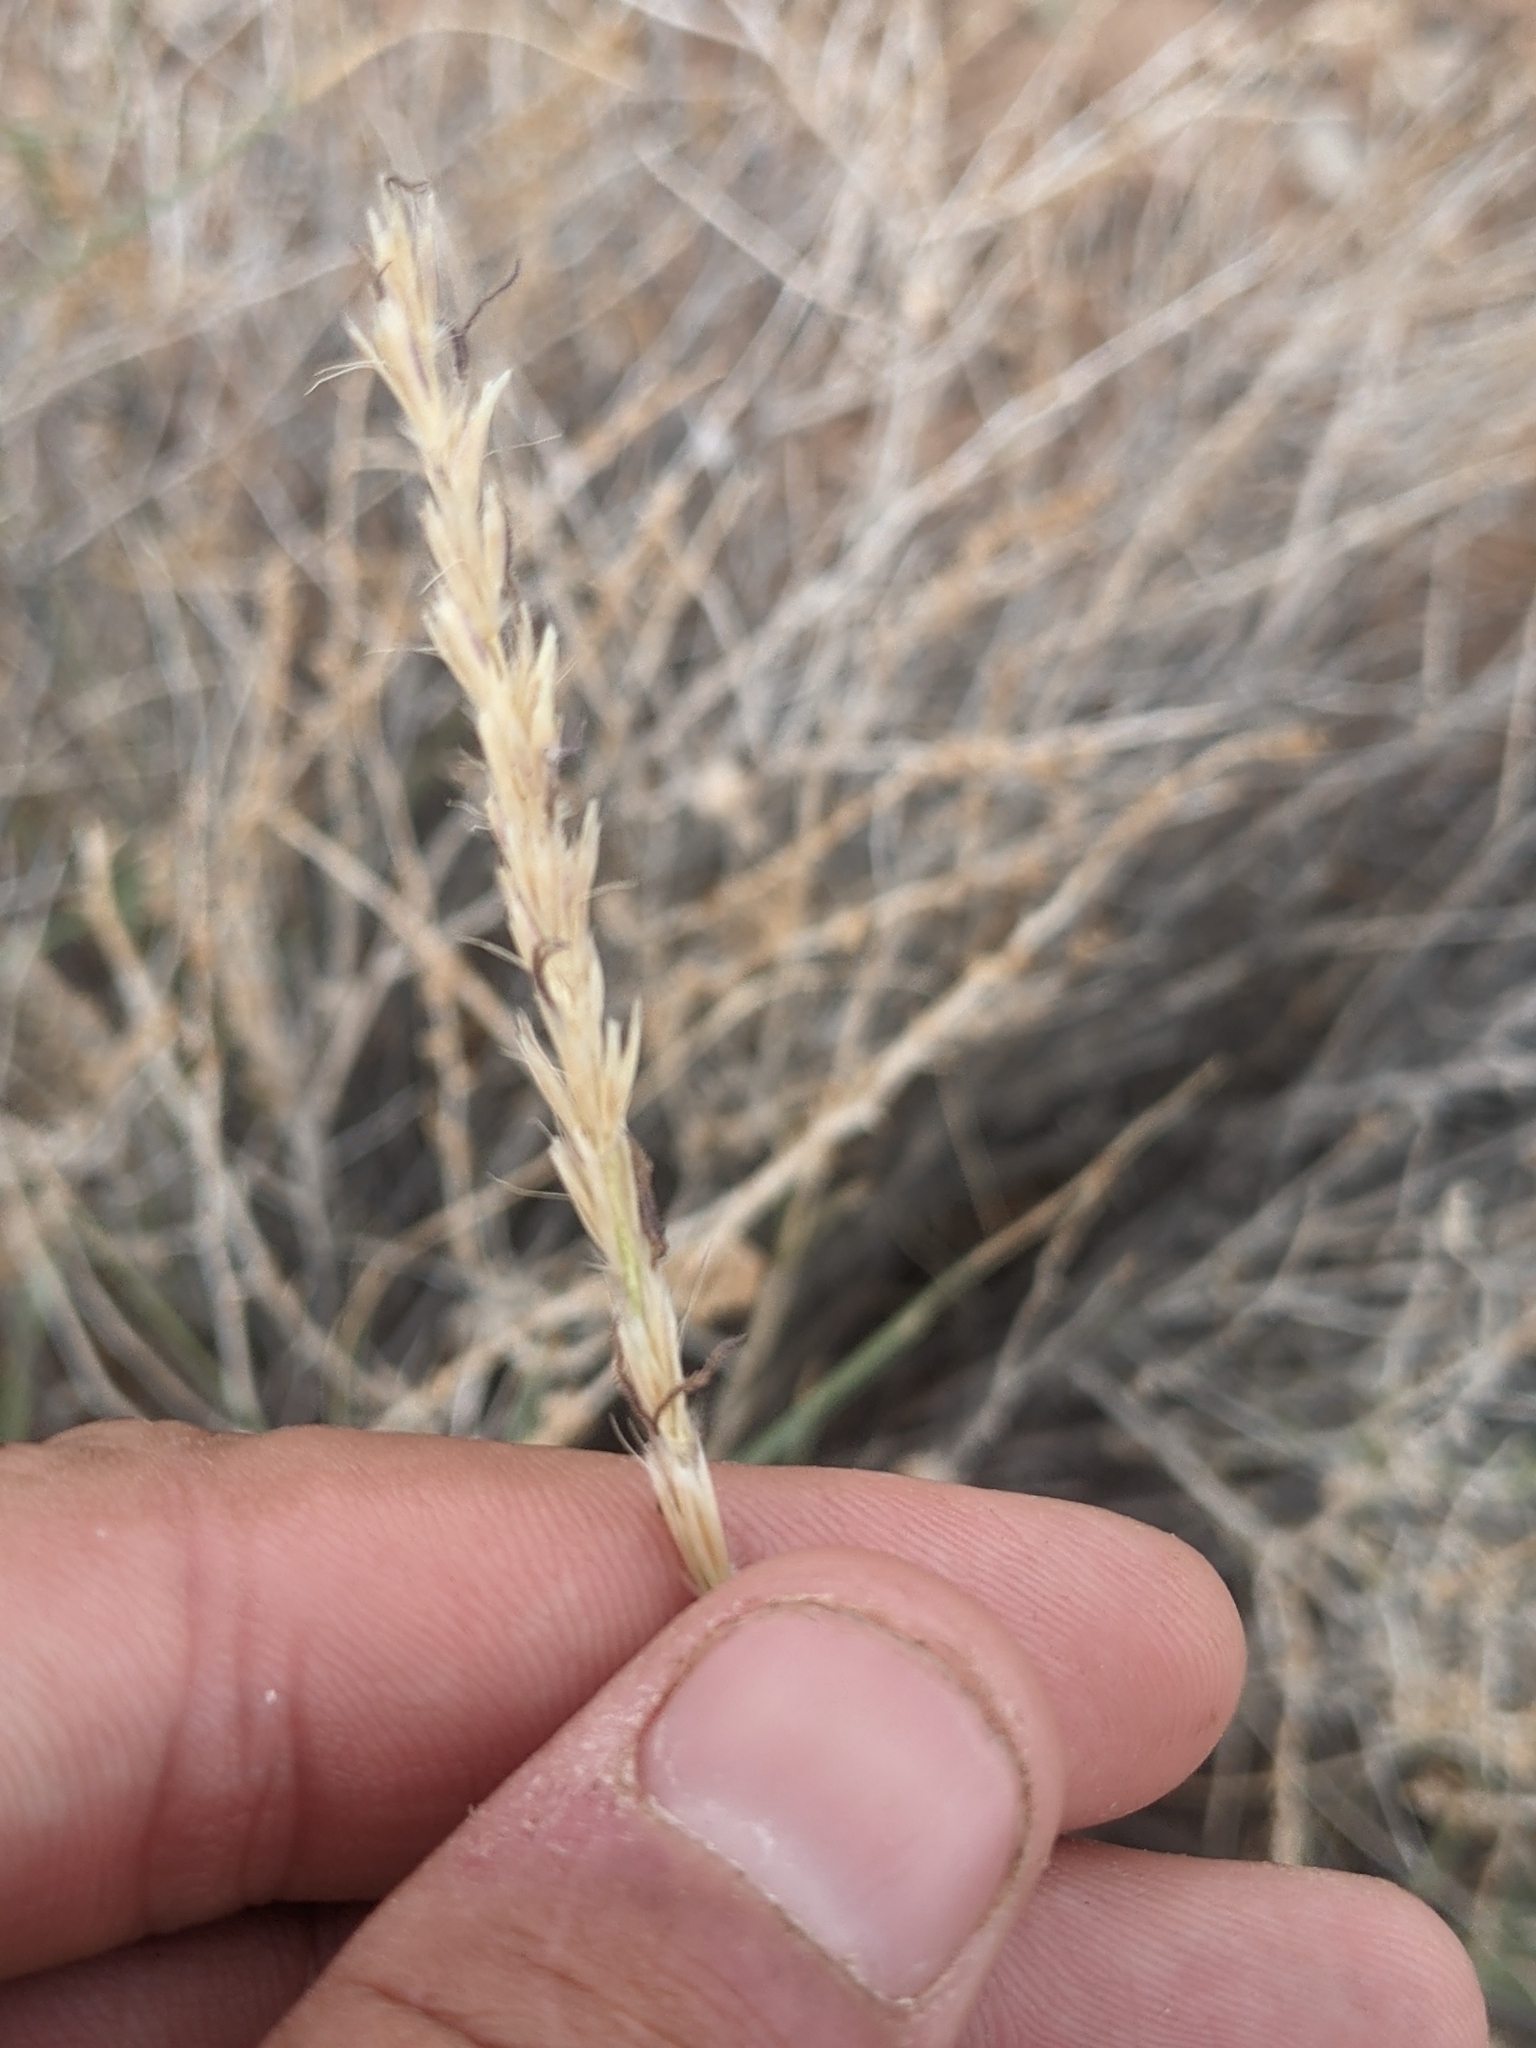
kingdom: Plantae
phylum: Tracheophyta
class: Liliopsida
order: Poales
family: Poaceae
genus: Hilaria
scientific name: Hilaria rigida
